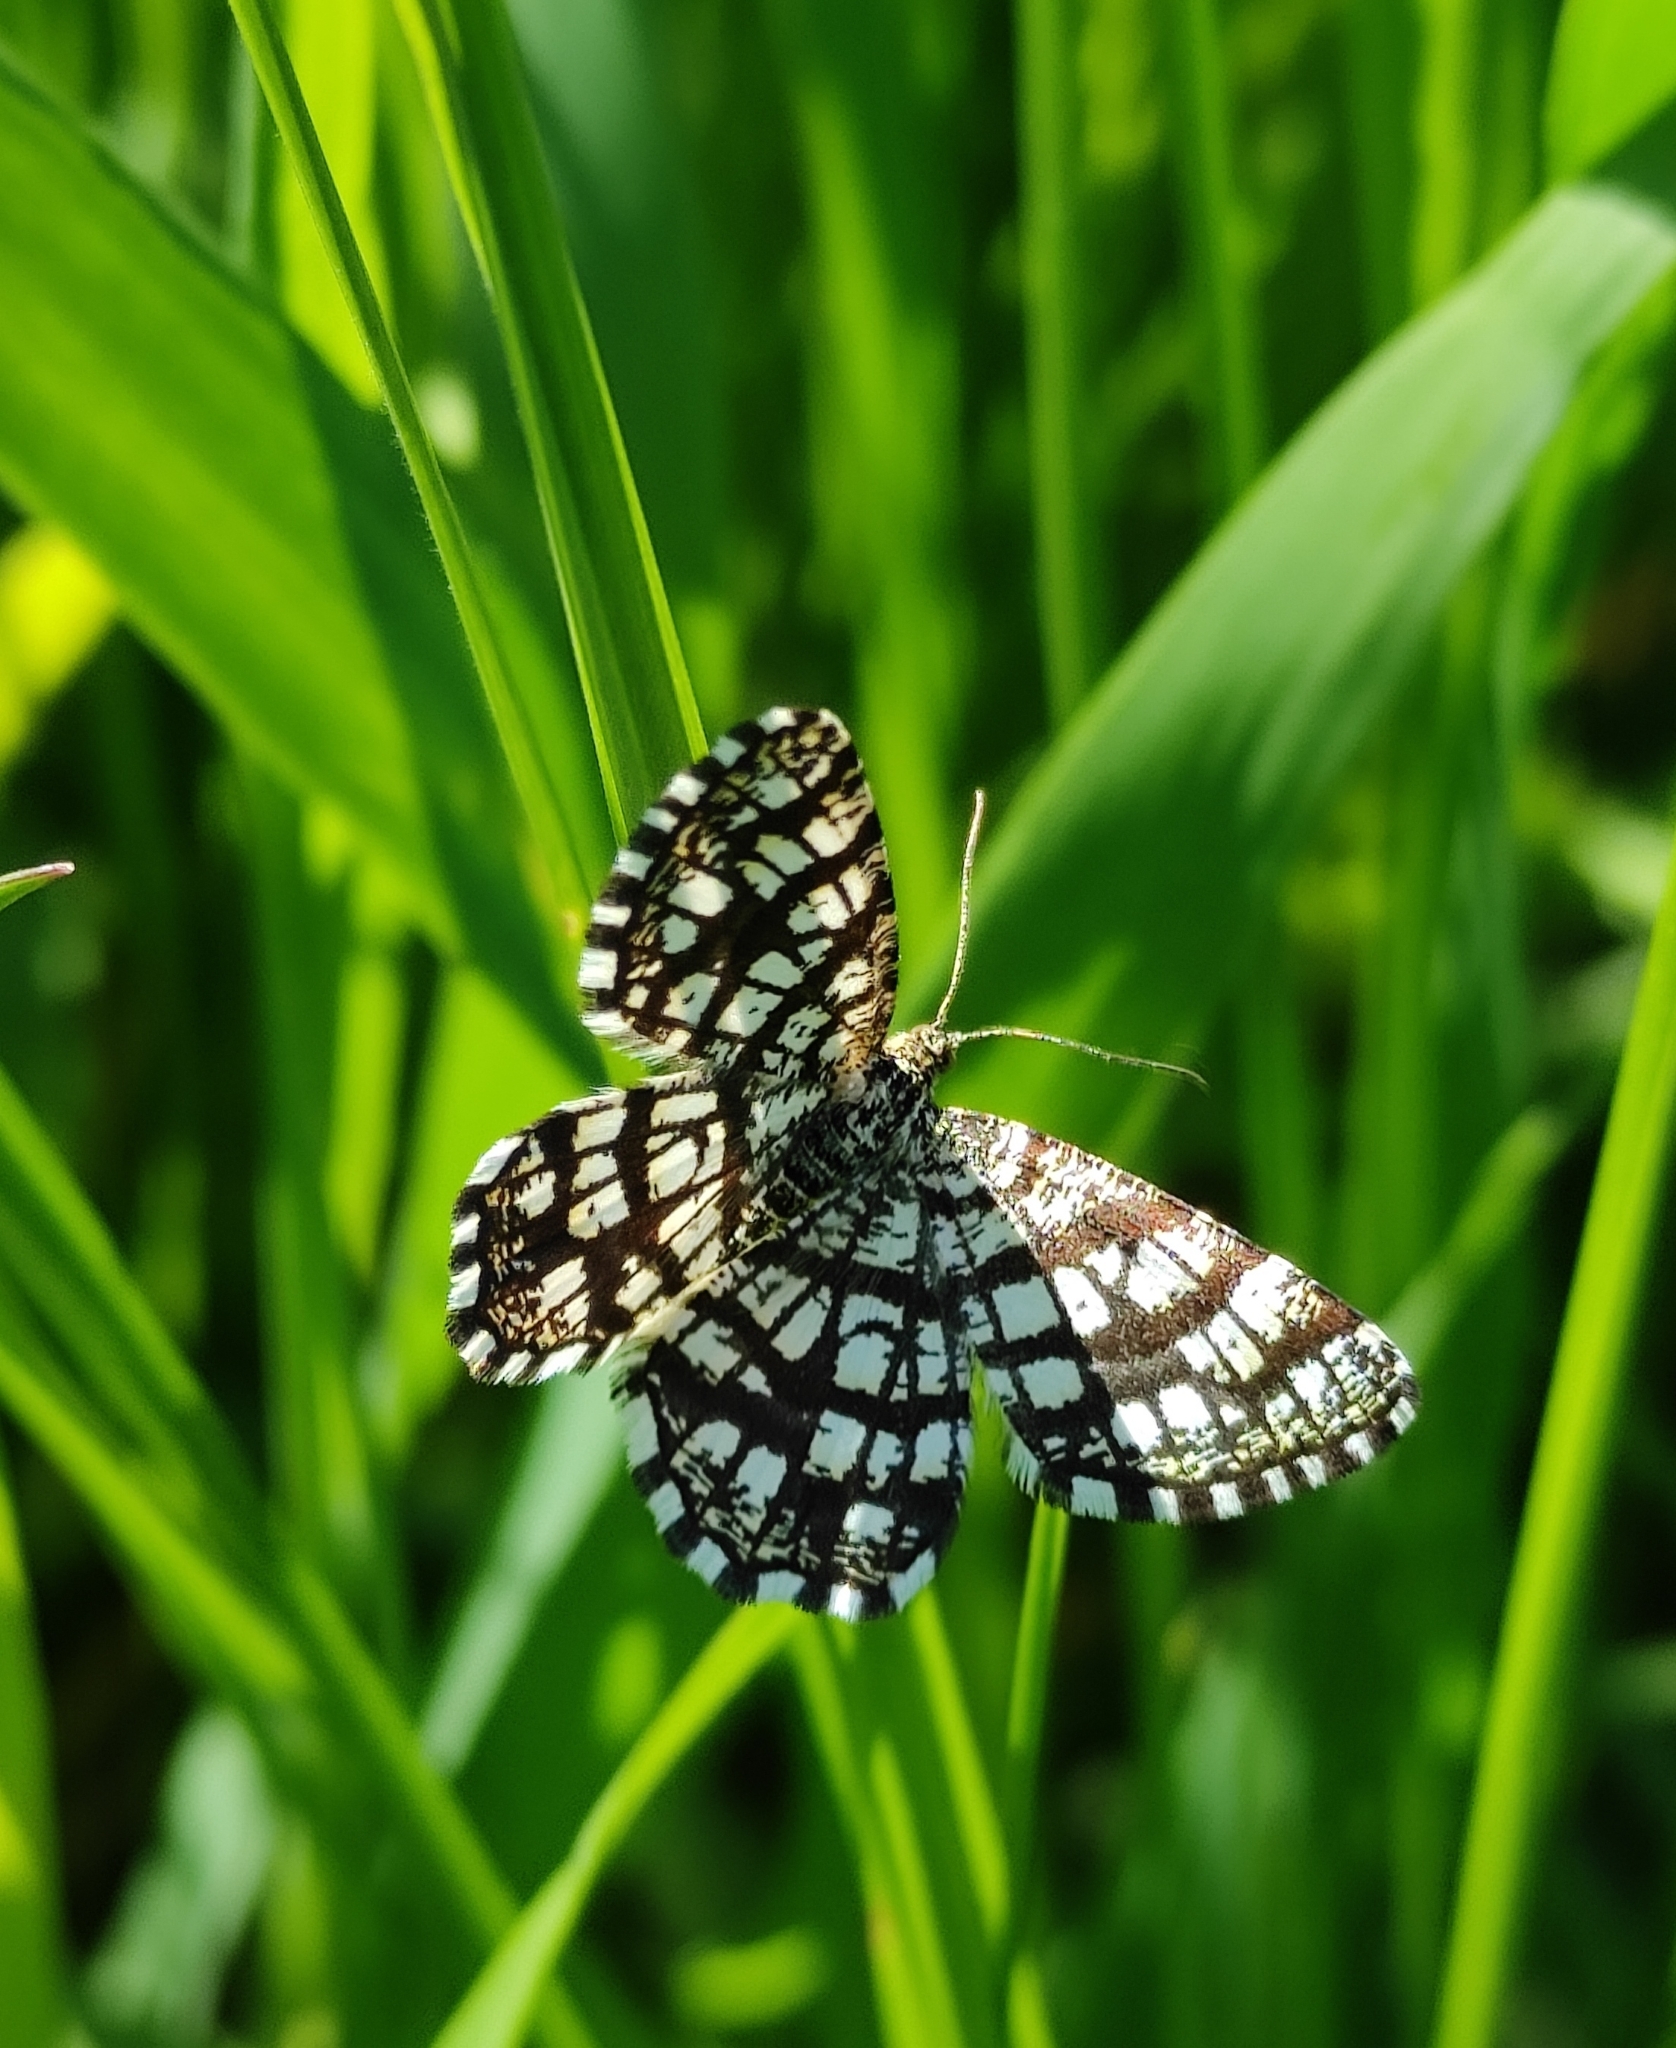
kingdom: Animalia
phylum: Arthropoda
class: Insecta
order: Lepidoptera
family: Geometridae
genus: Chiasmia
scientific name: Chiasmia clathrata
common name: Latticed heath
